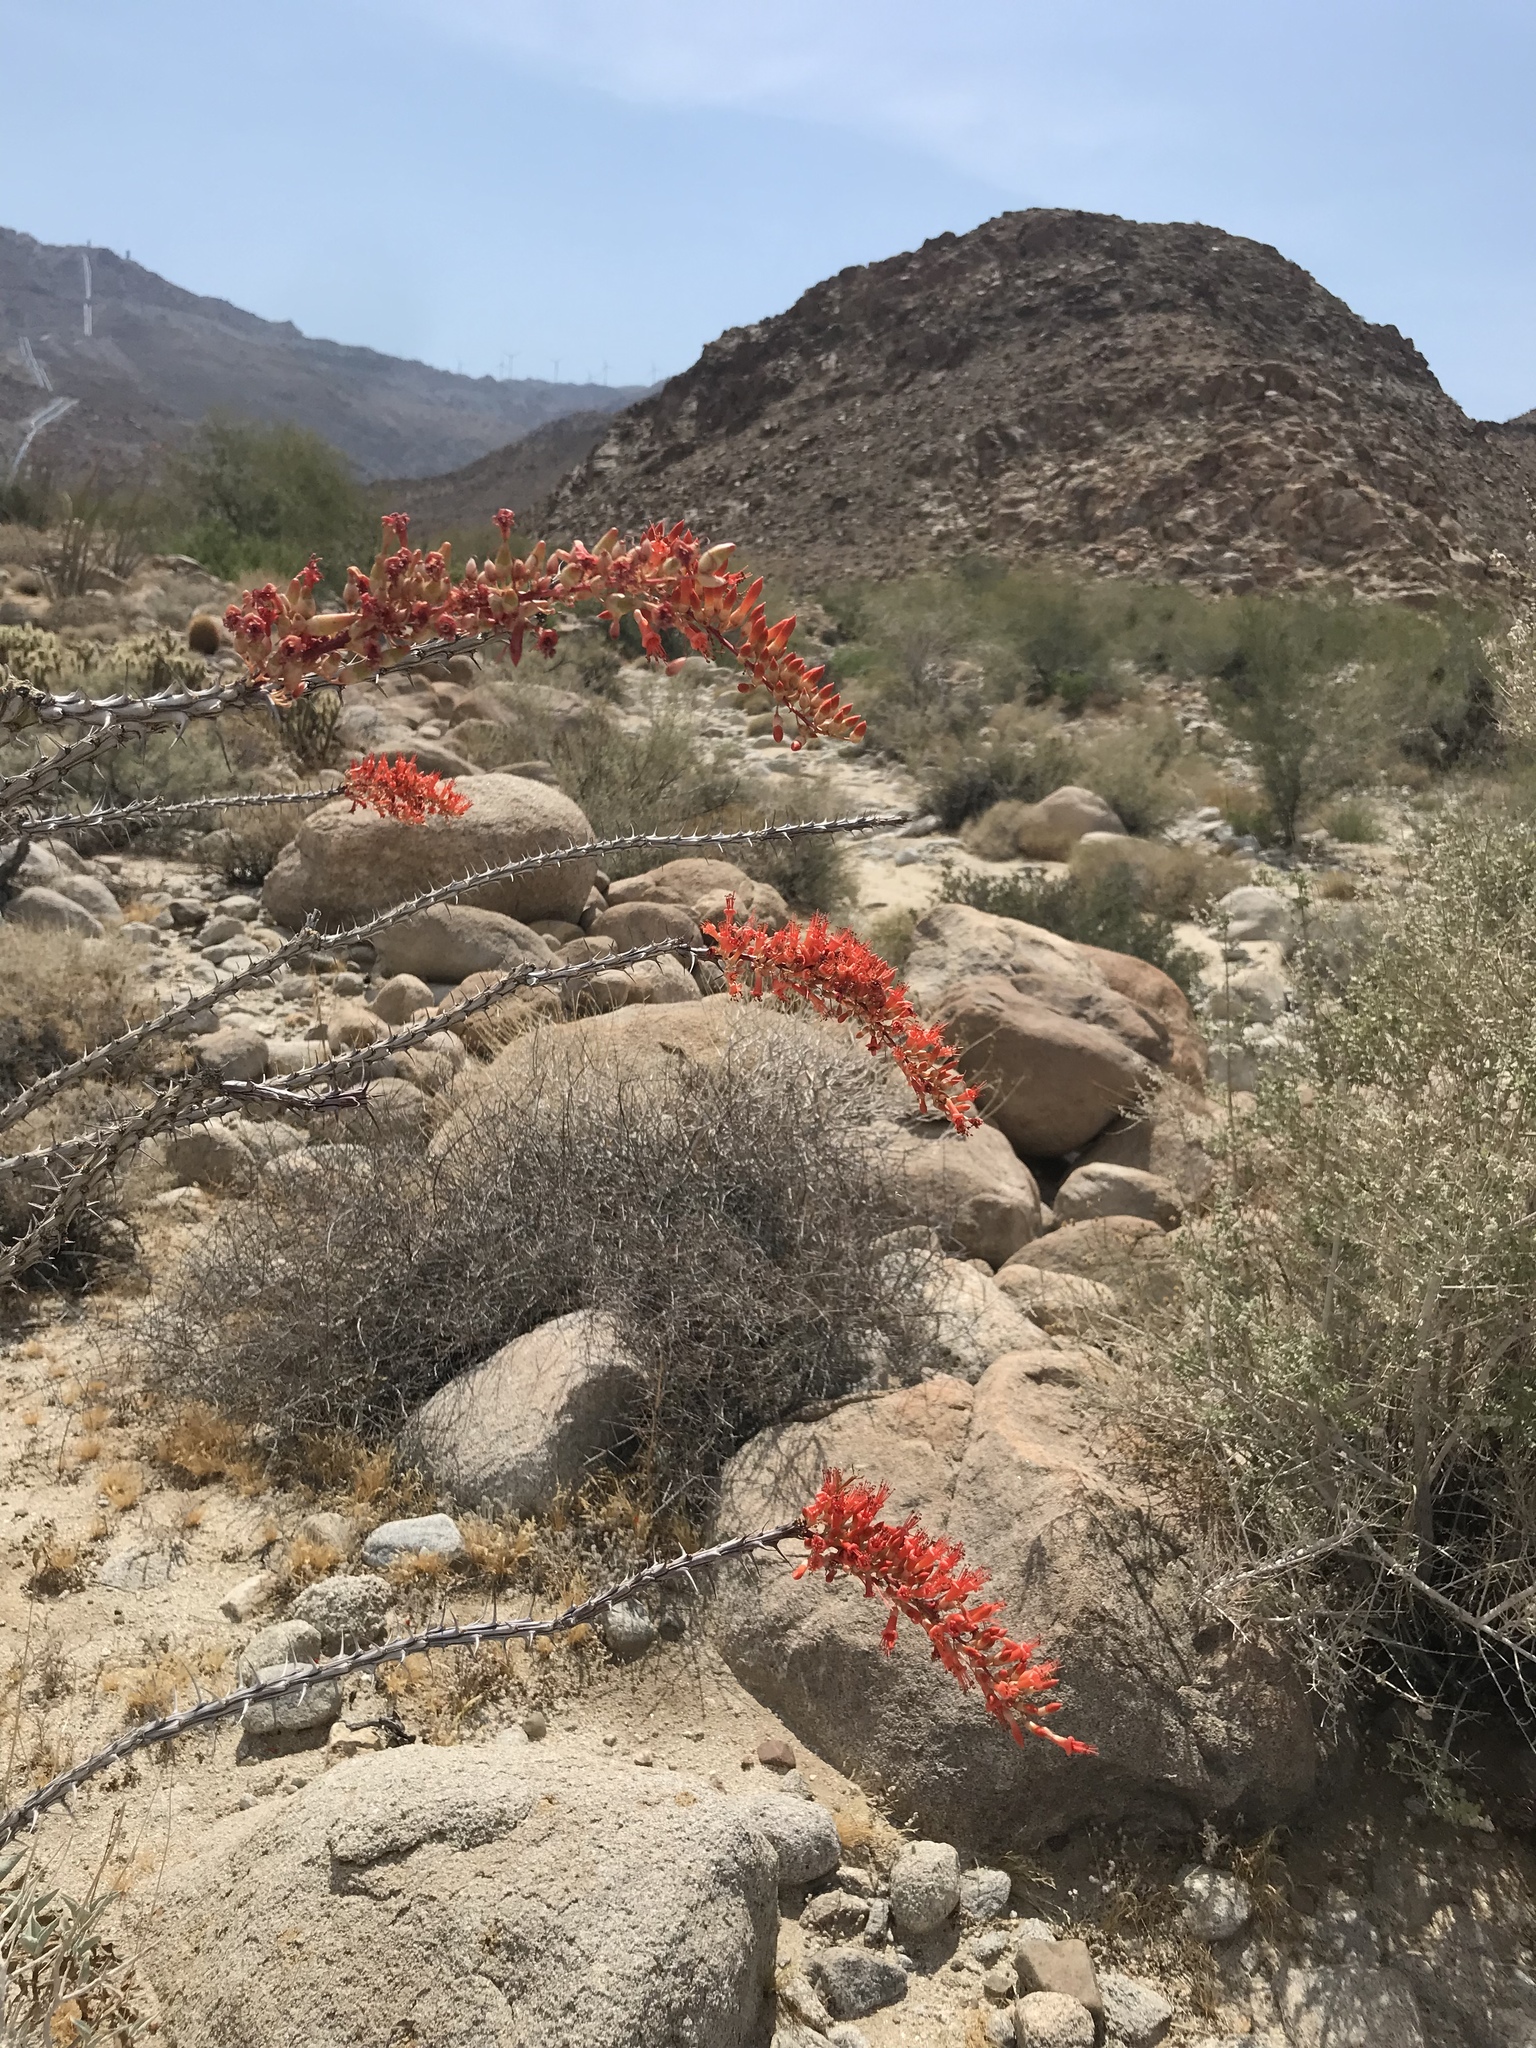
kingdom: Plantae
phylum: Tracheophyta
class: Magnoliopsida
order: Ericales
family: Fouquieriaceae
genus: Fouquieria
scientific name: Fouquieria splendens
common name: Vine-cactus
